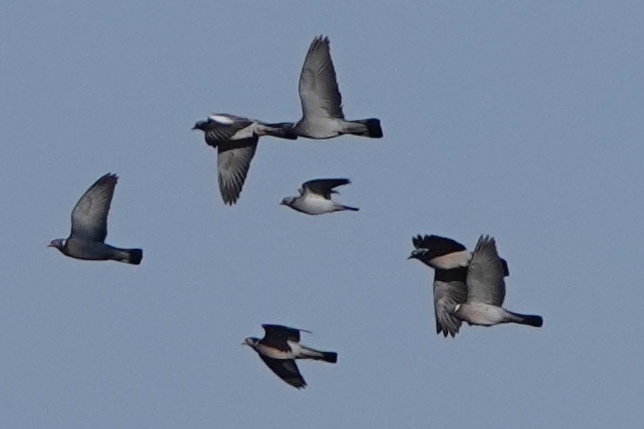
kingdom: Animalia
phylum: Chordata
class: Aves
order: Columbiformes
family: Columbidae
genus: Columba
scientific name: Columba oenas
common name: Stock dove
